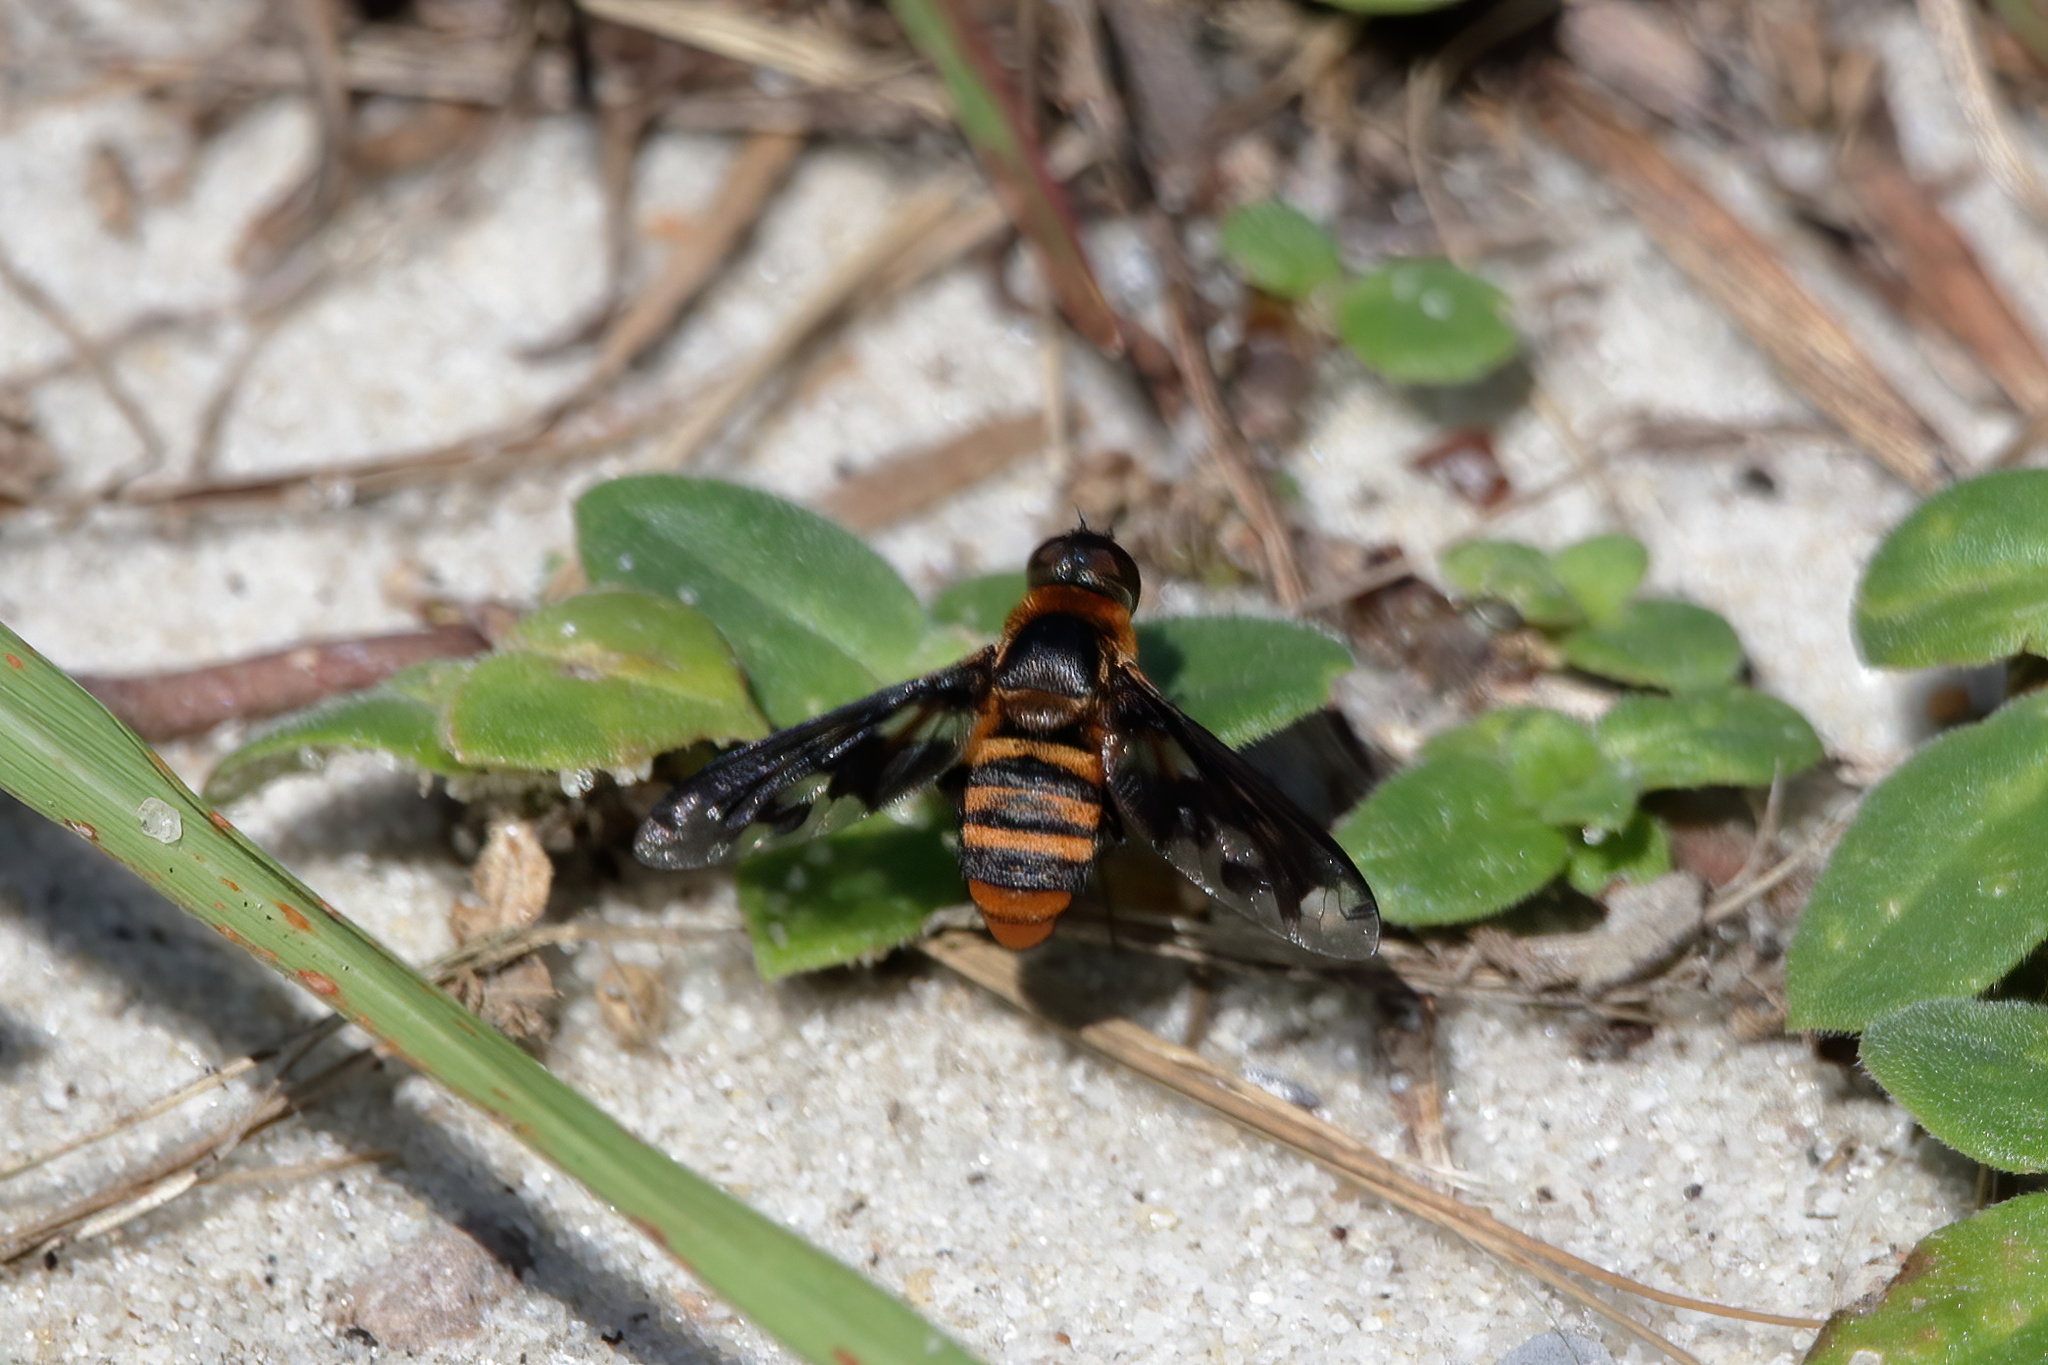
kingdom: Animalia
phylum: Arthropoda
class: Insecta
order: Diptera
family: Bombyliidae
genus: Exoprosopa
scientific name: Exoprosopa fascipennis
